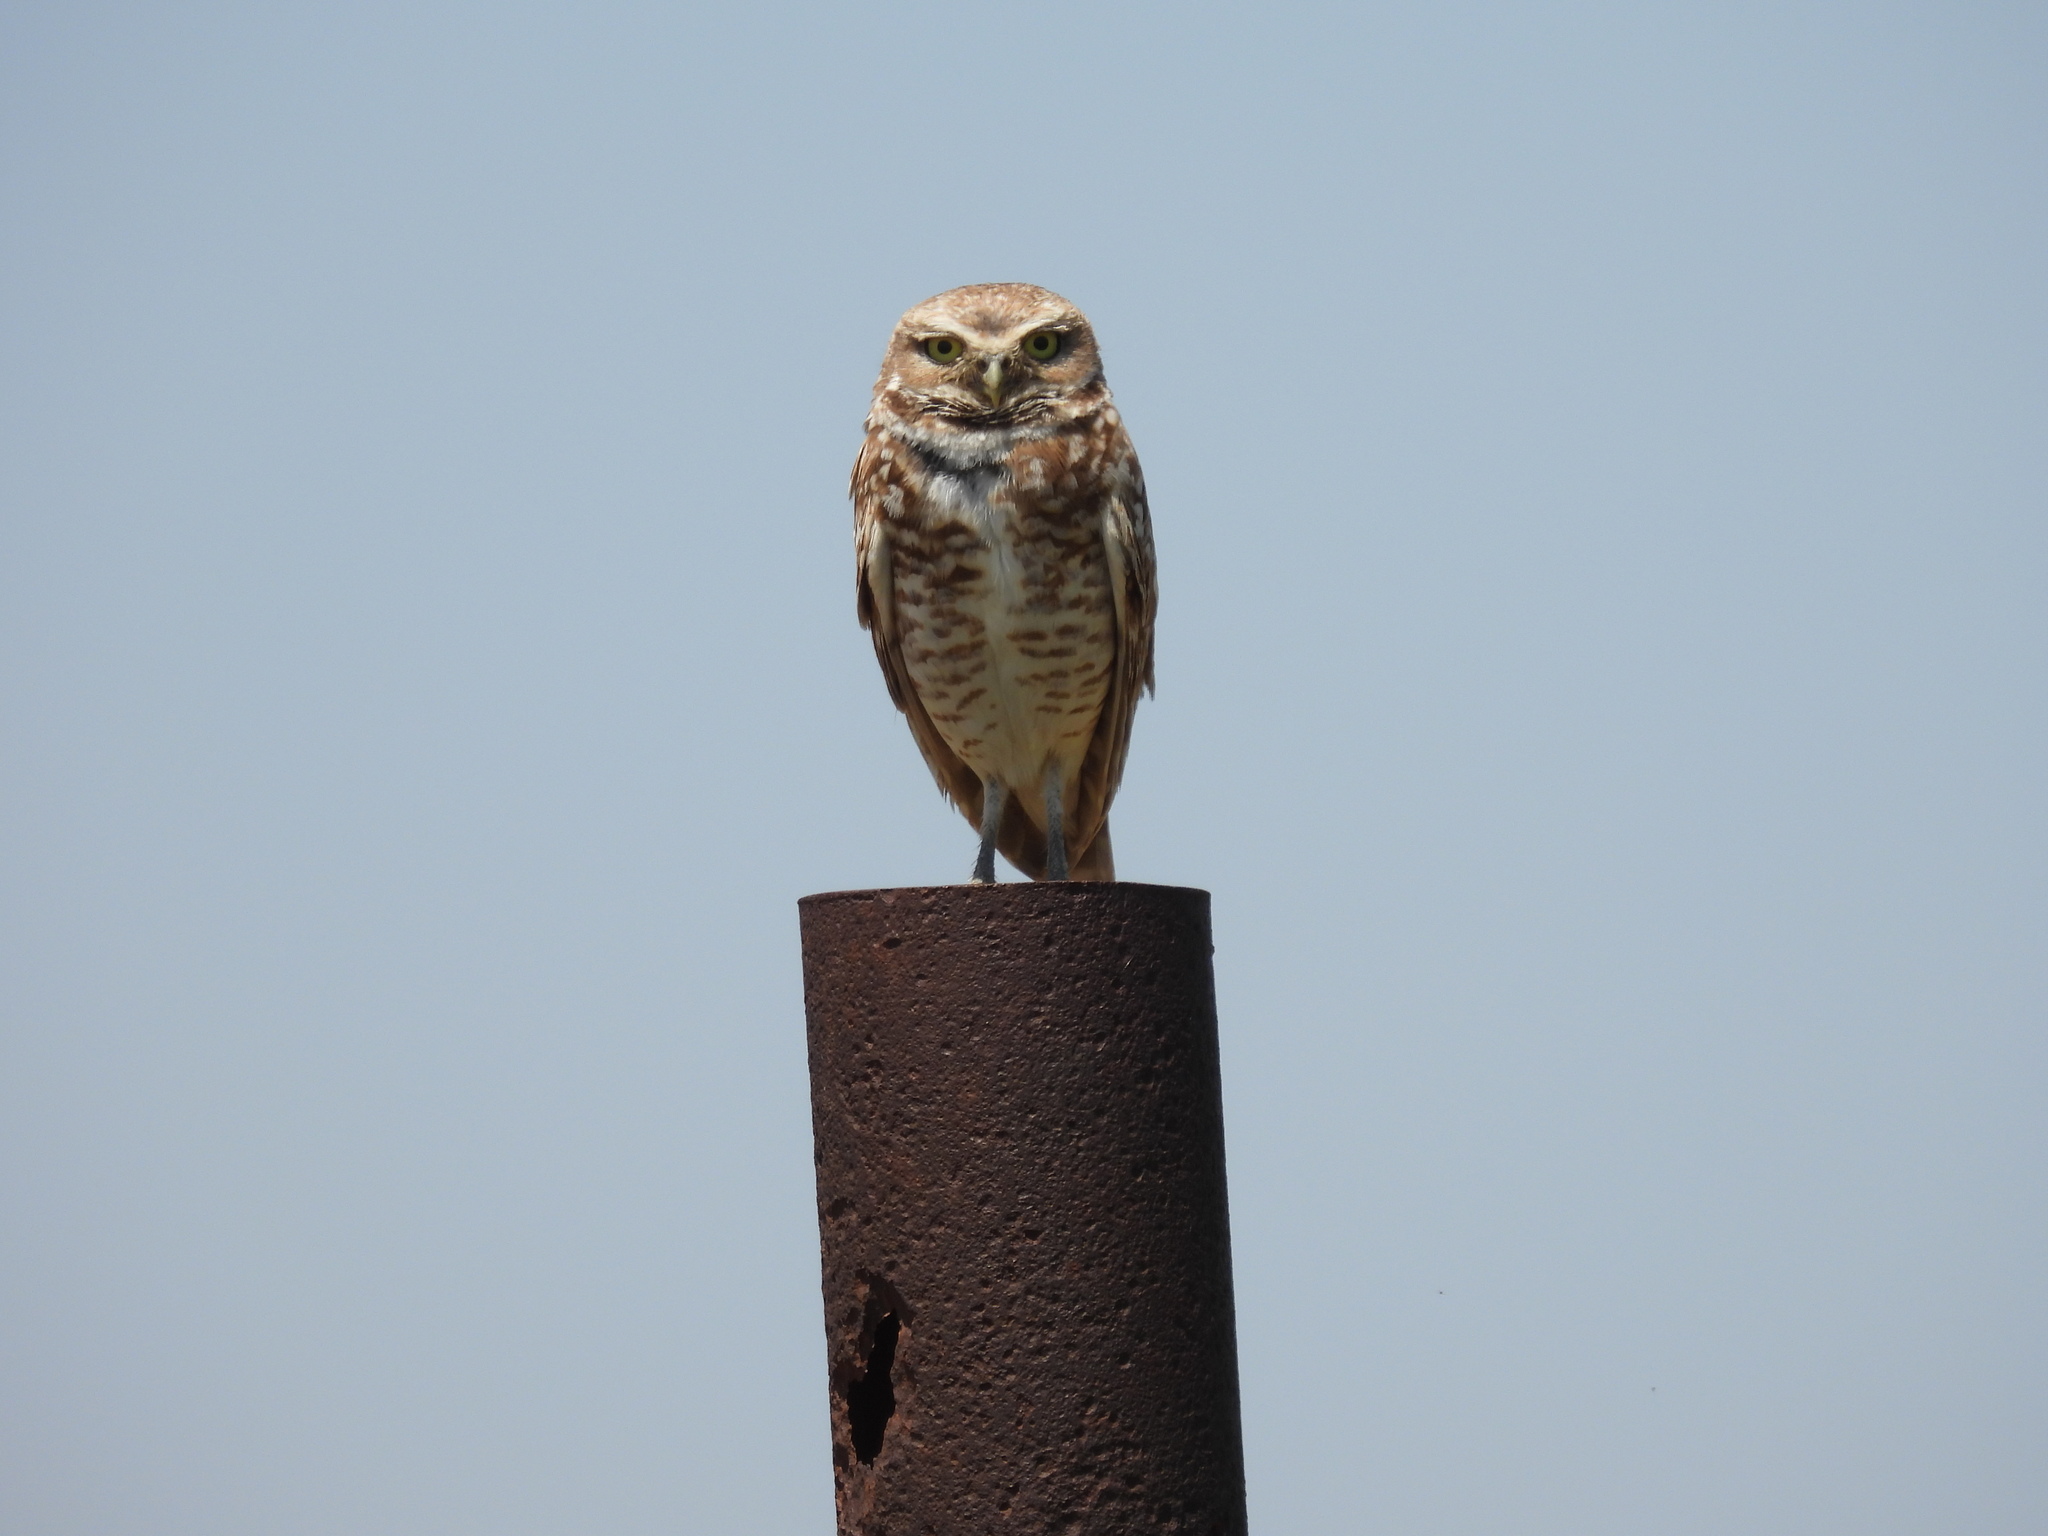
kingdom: Animalia
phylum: Chordata
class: Aves
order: Strigiformes
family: Strigidae
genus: Athene
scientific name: Athene cunicularia
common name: Burrowing owl
